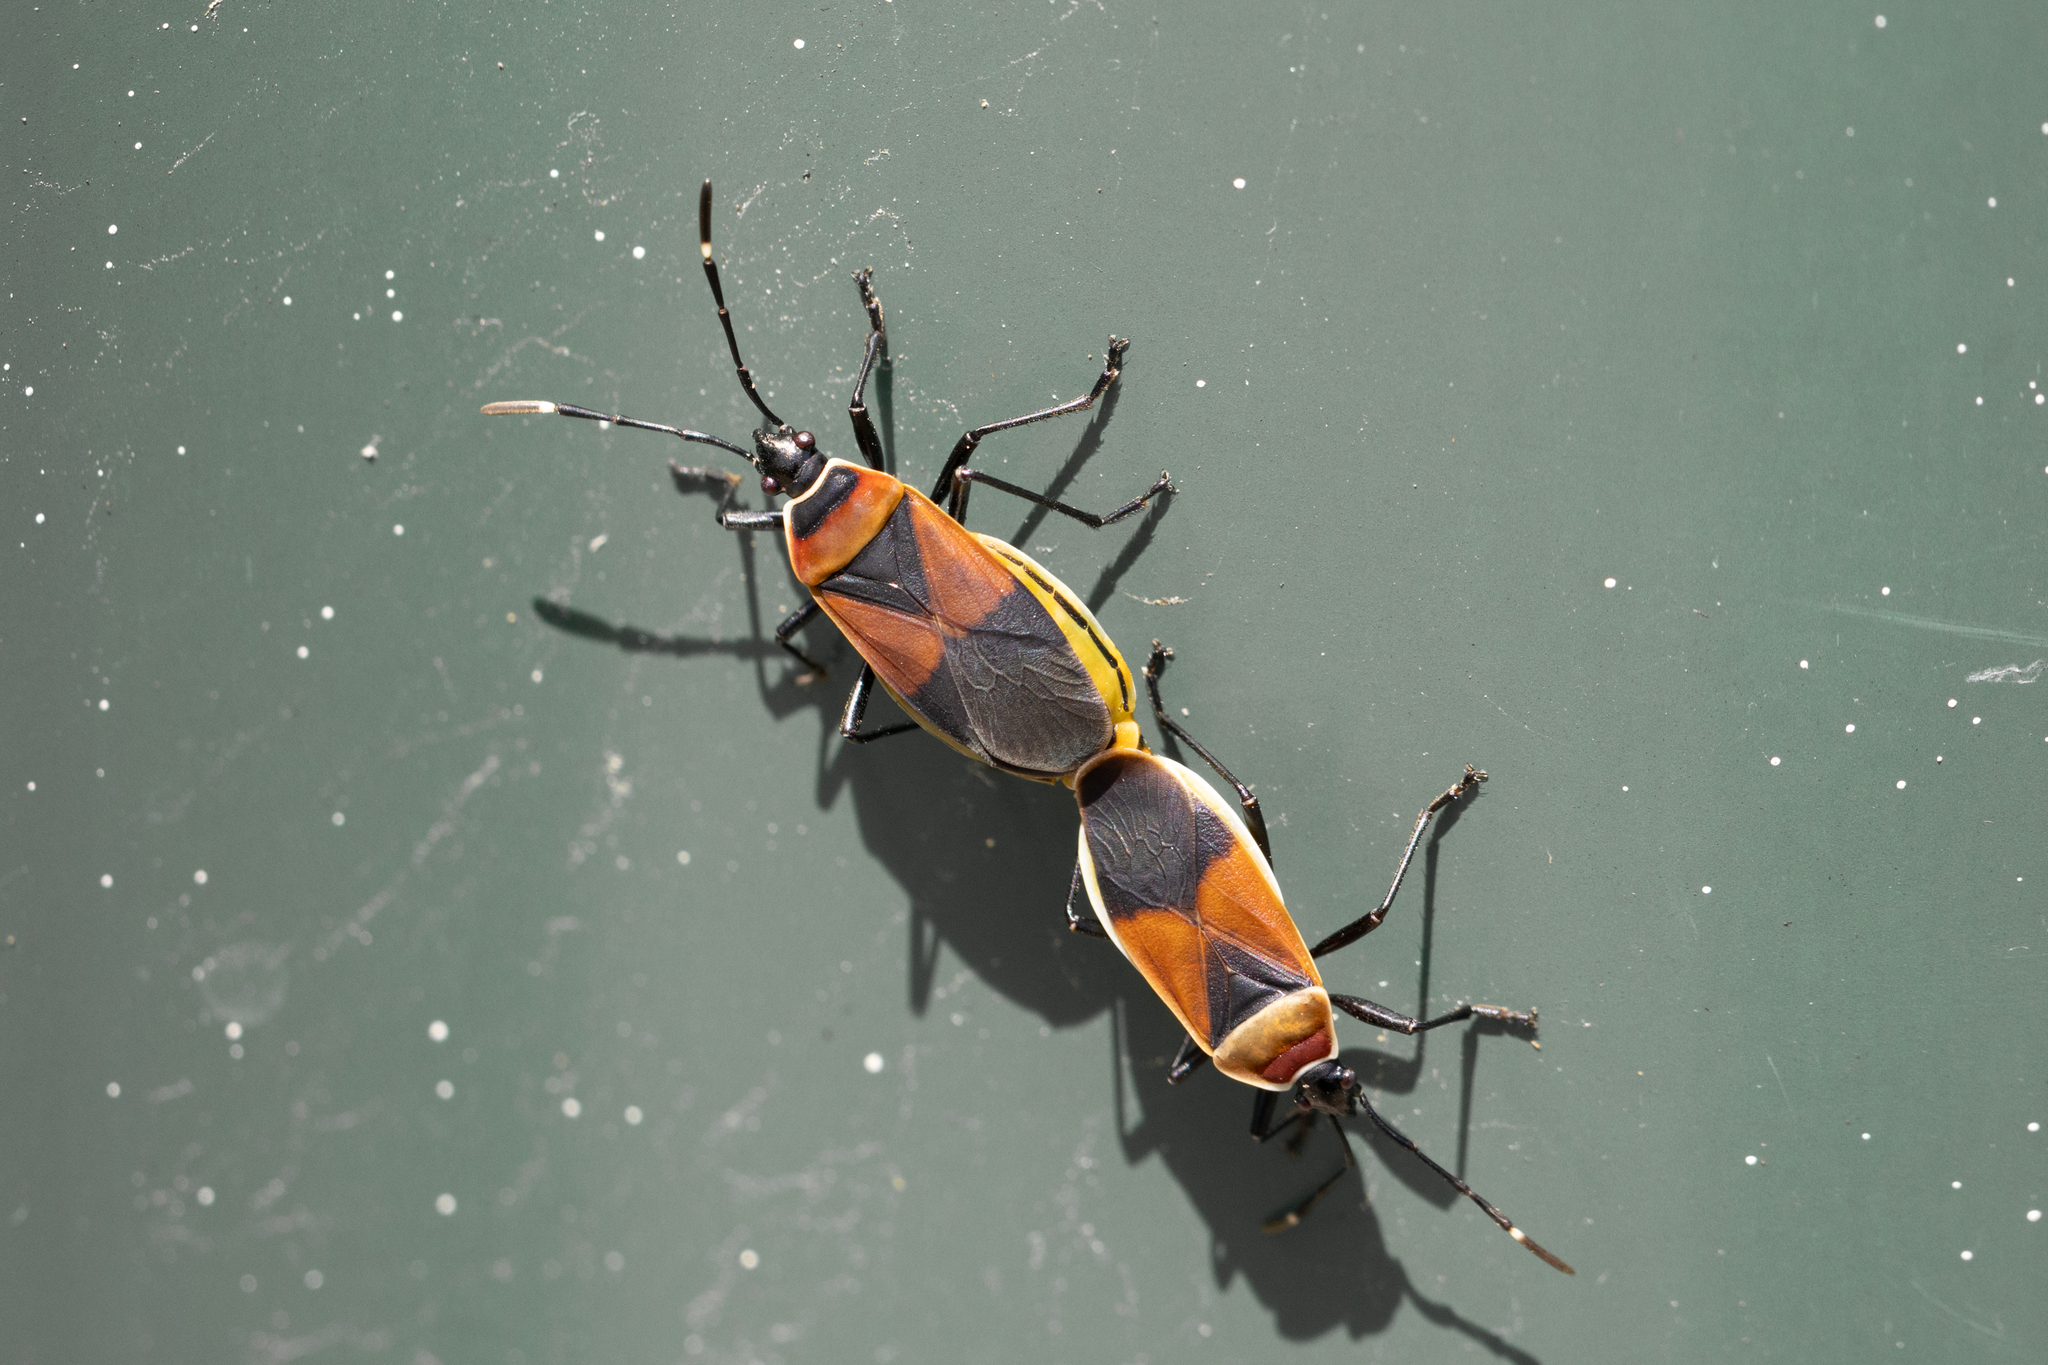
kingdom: Animalia
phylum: Arthropoda
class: Insecta
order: Hemiptera
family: Pyrrhocoridae
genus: Dindymus
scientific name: Dindymus
